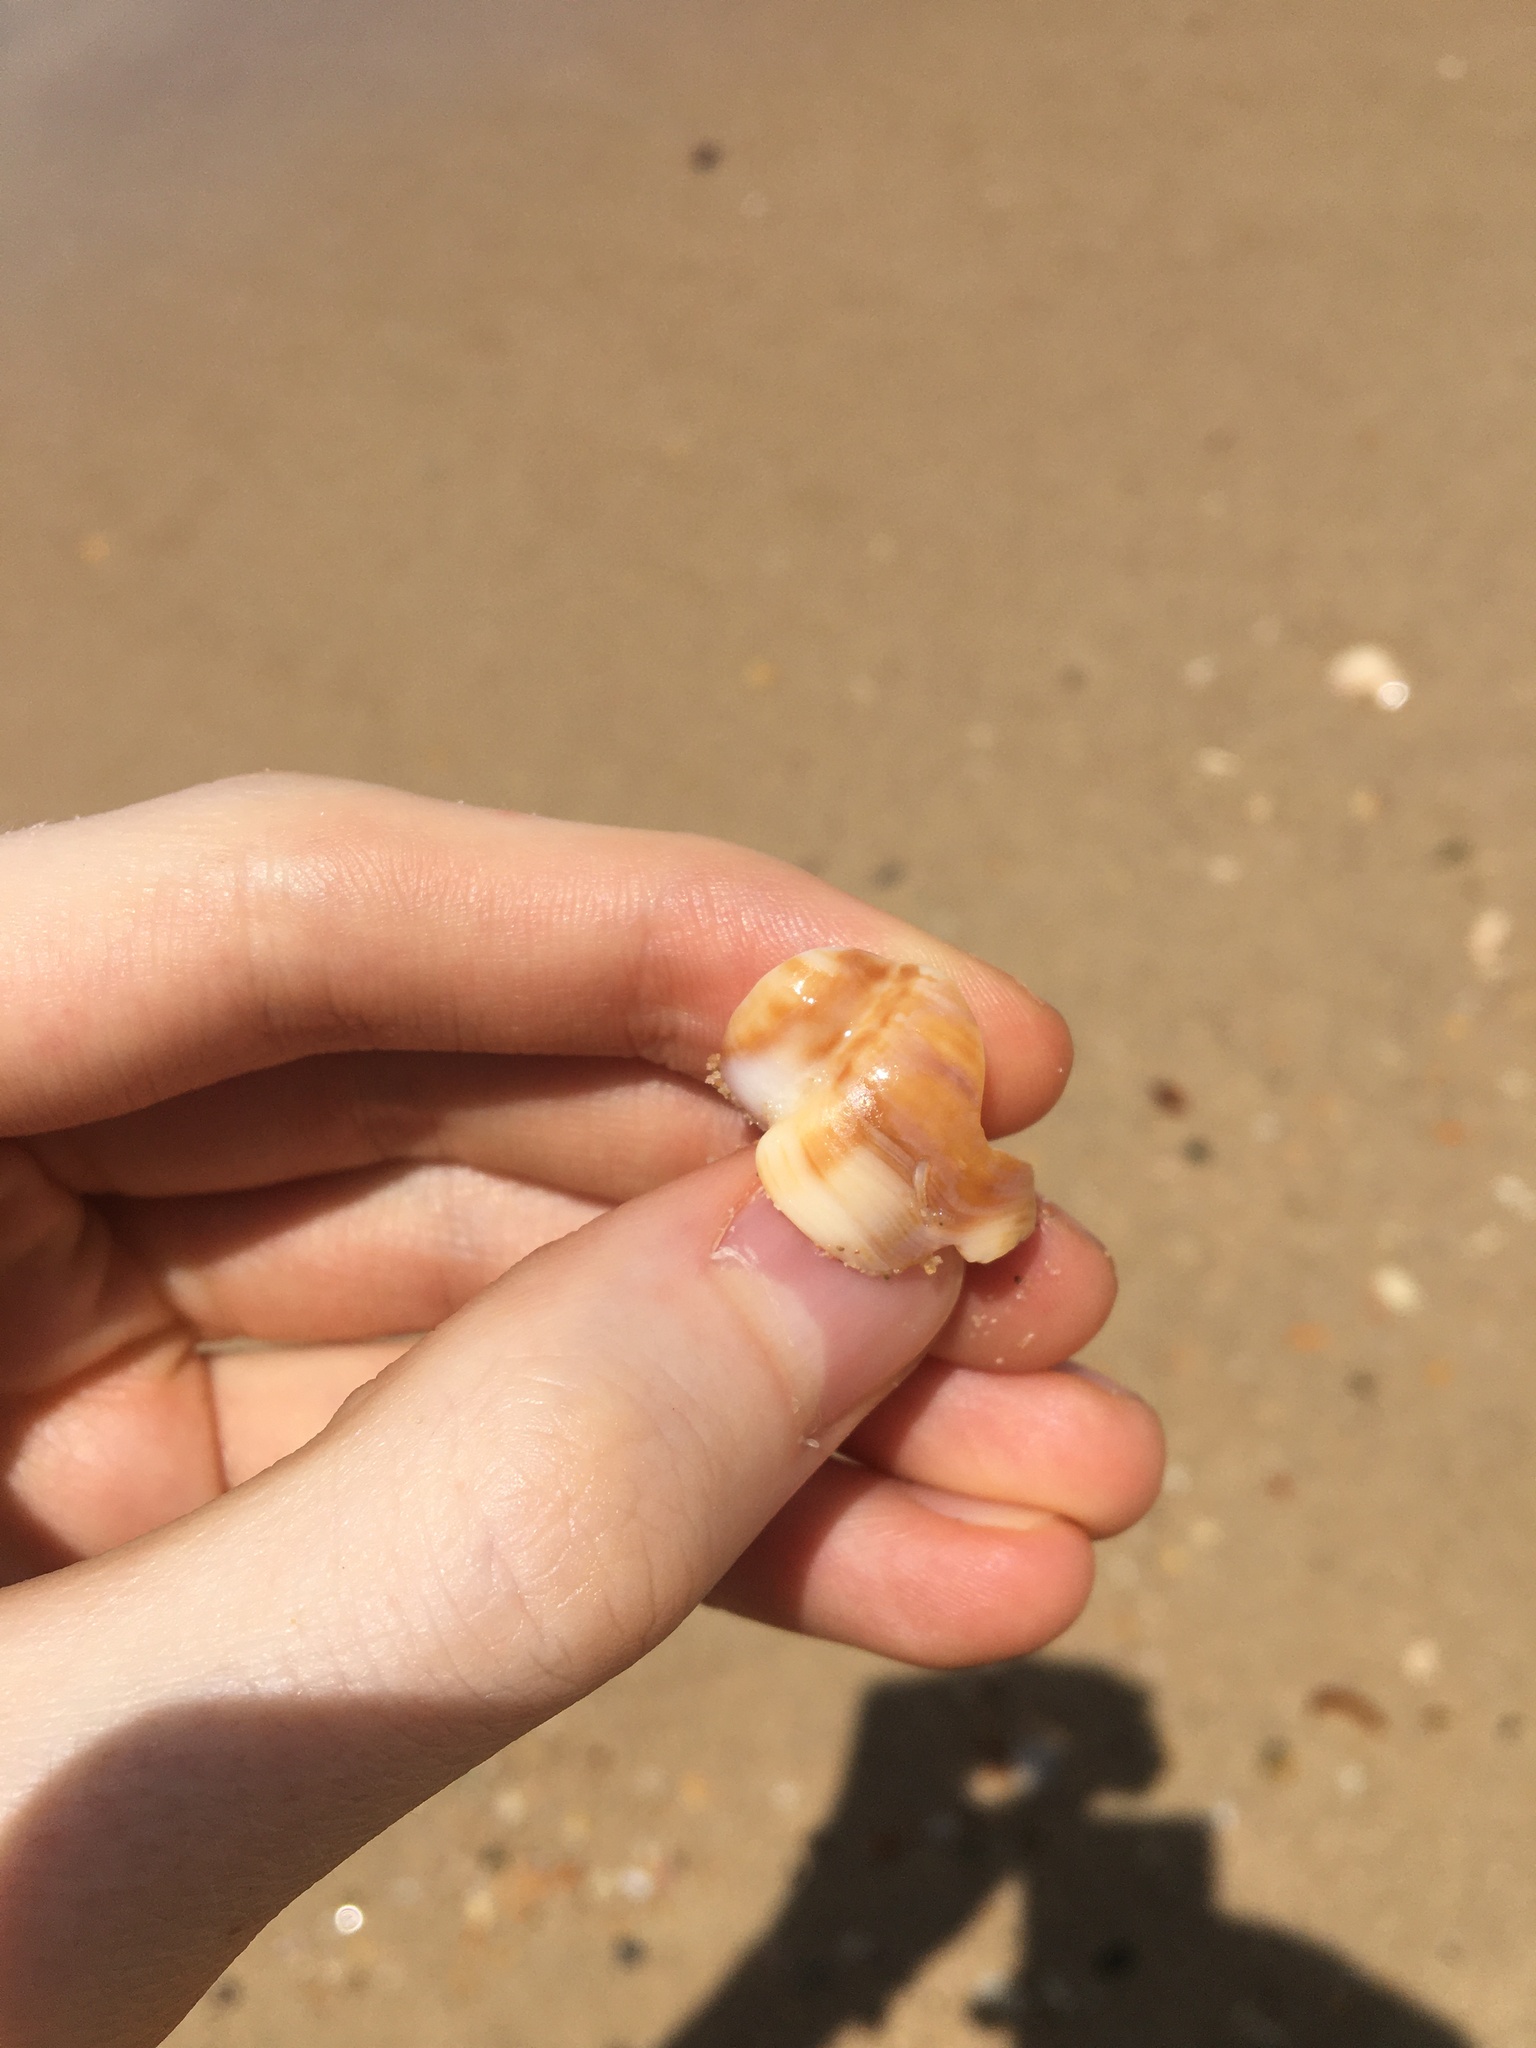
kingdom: Animalia
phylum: Mollusca
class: Gastropoda
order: Littorinimorpha
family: Struthiolariidae
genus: Tylospira
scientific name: Tylospira scutulata
